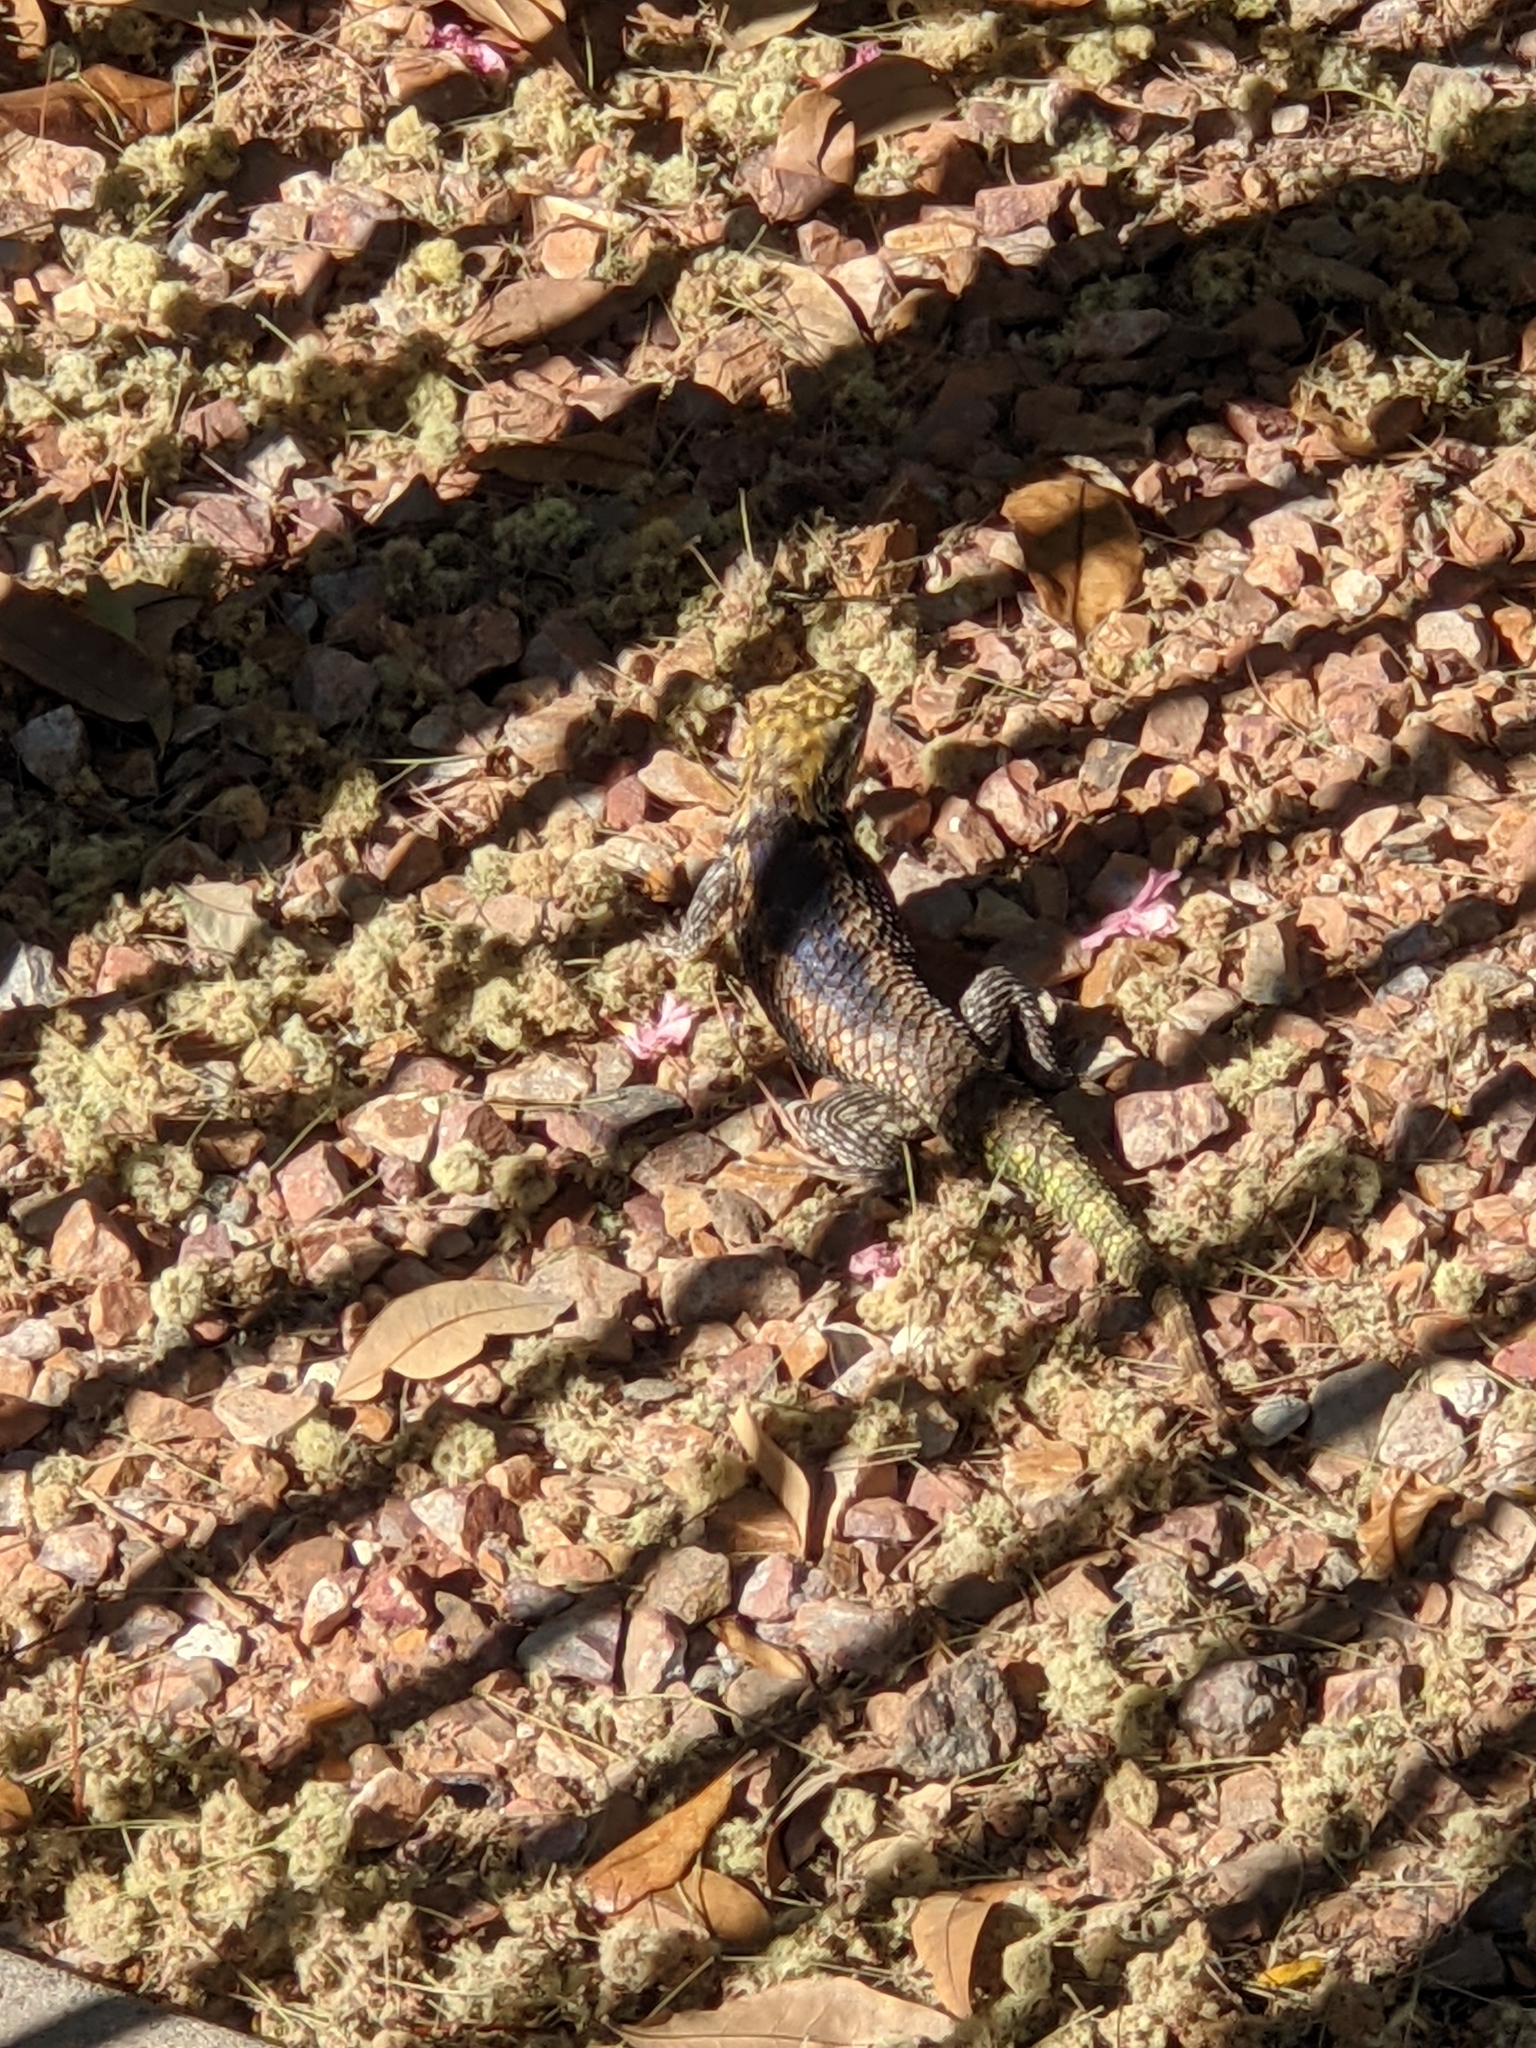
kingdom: Animalia
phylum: Chordata
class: Squamata
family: Phrynosomatidae
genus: Sceloporus
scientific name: Sceloporus magister
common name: Desert spiny lizard
